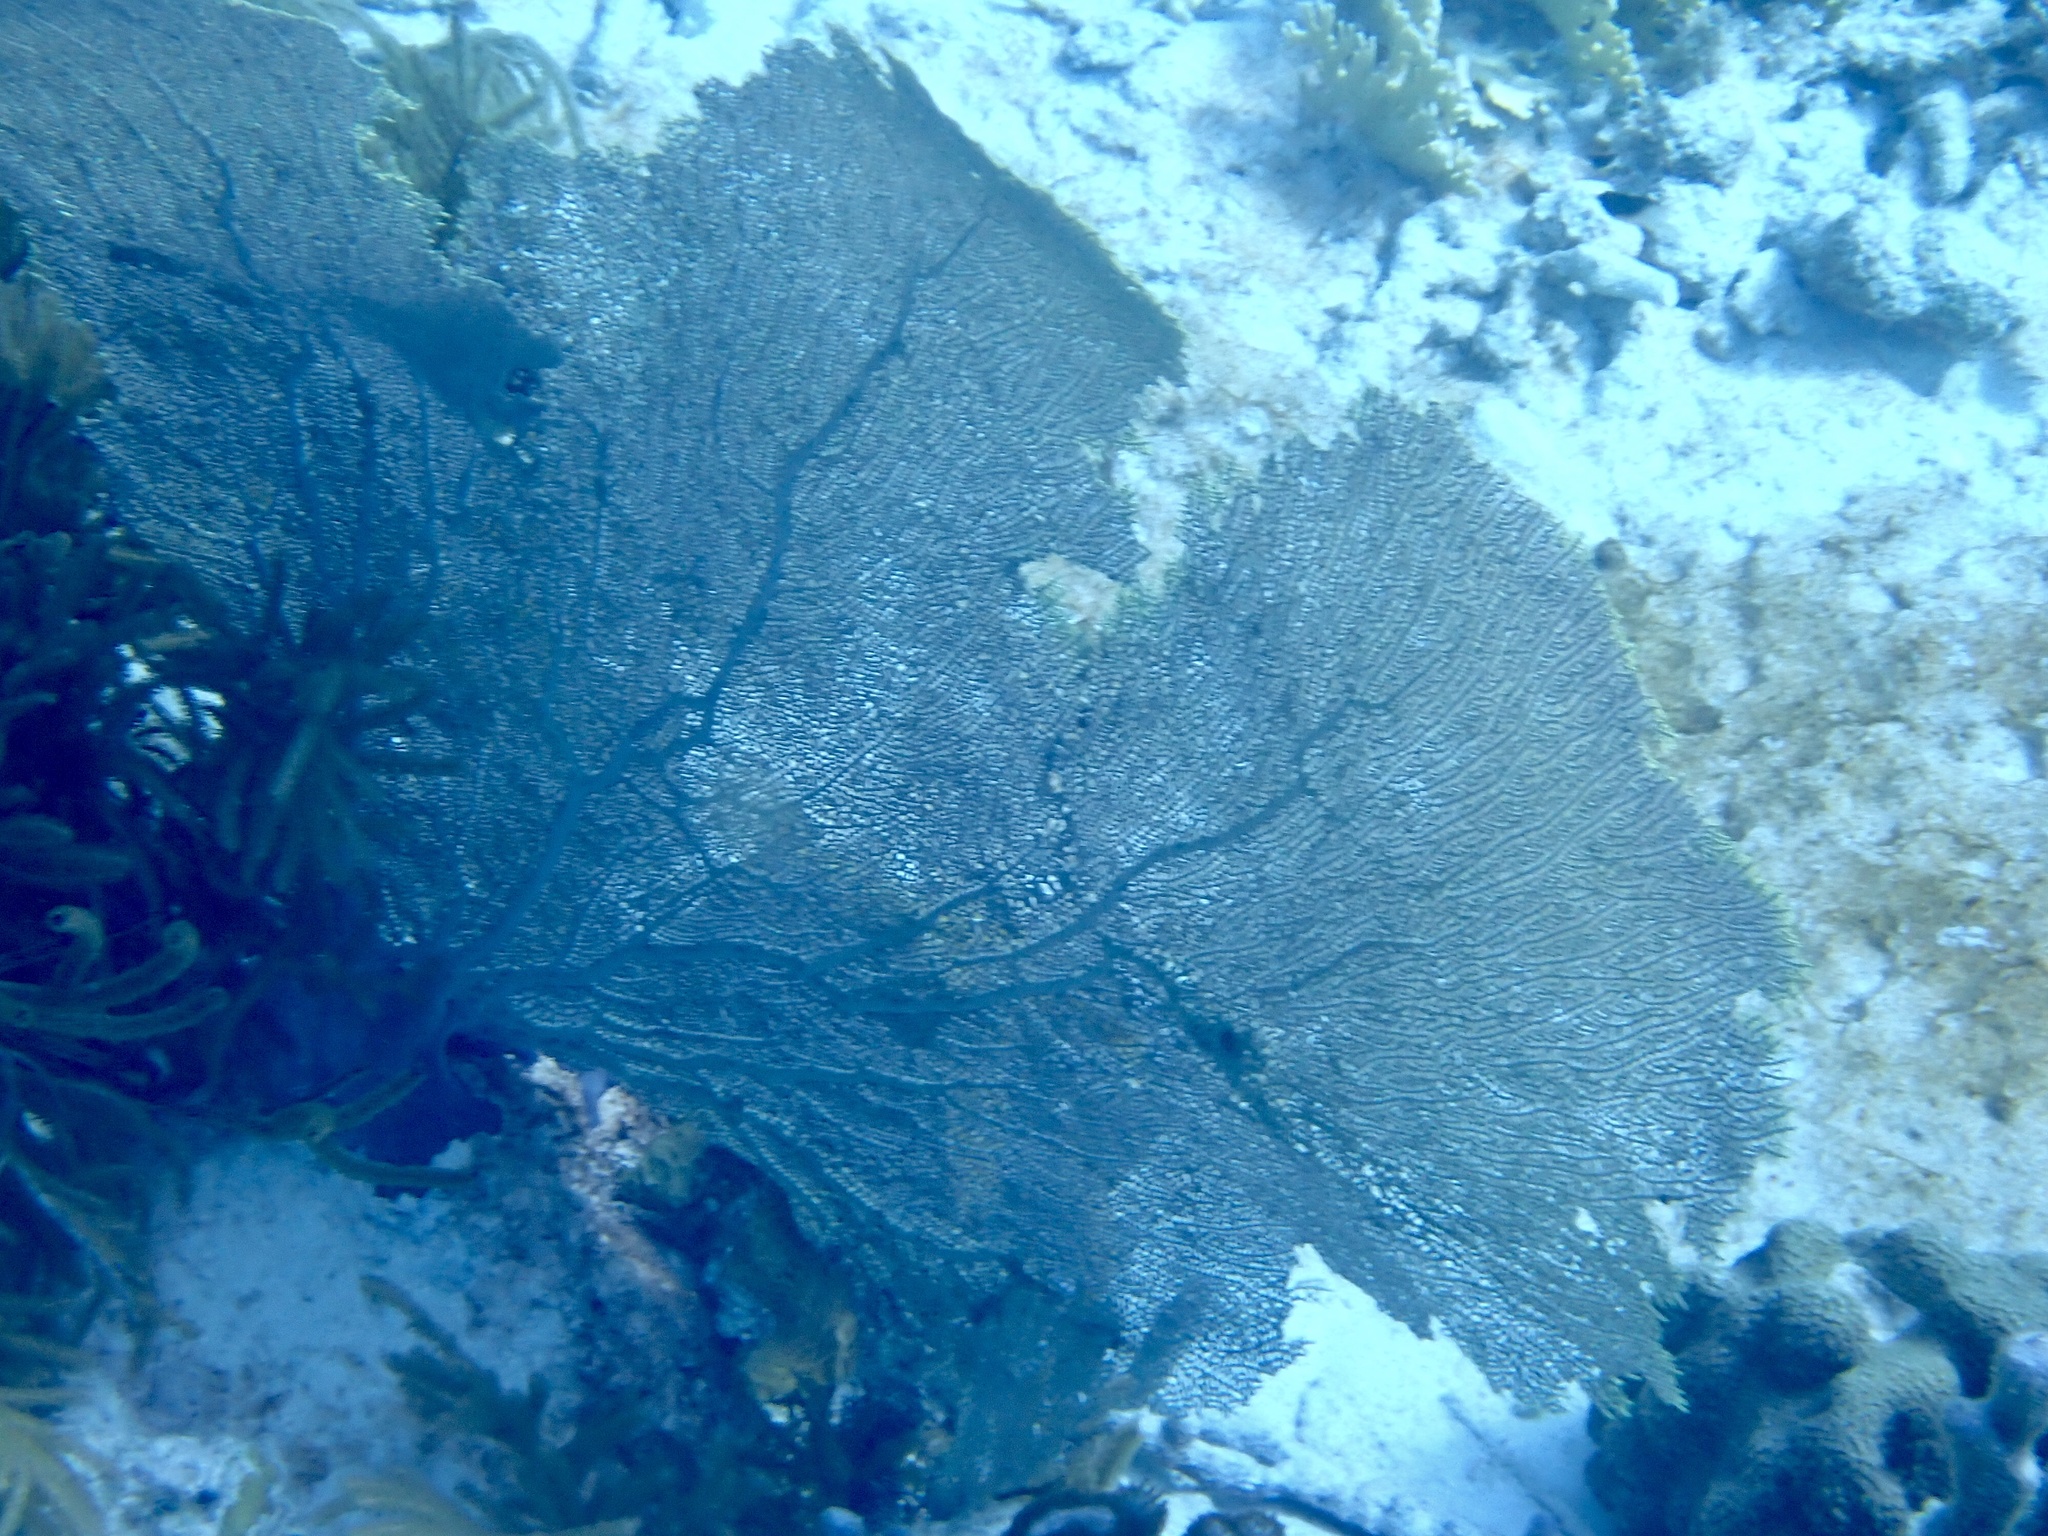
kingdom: Animalia
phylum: Cnidaria
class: Anthozoa
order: Malacalcyonacea
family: Gorgoniidae
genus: Gorgonia
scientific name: Gorgonia ventalina
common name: Common sea fan
